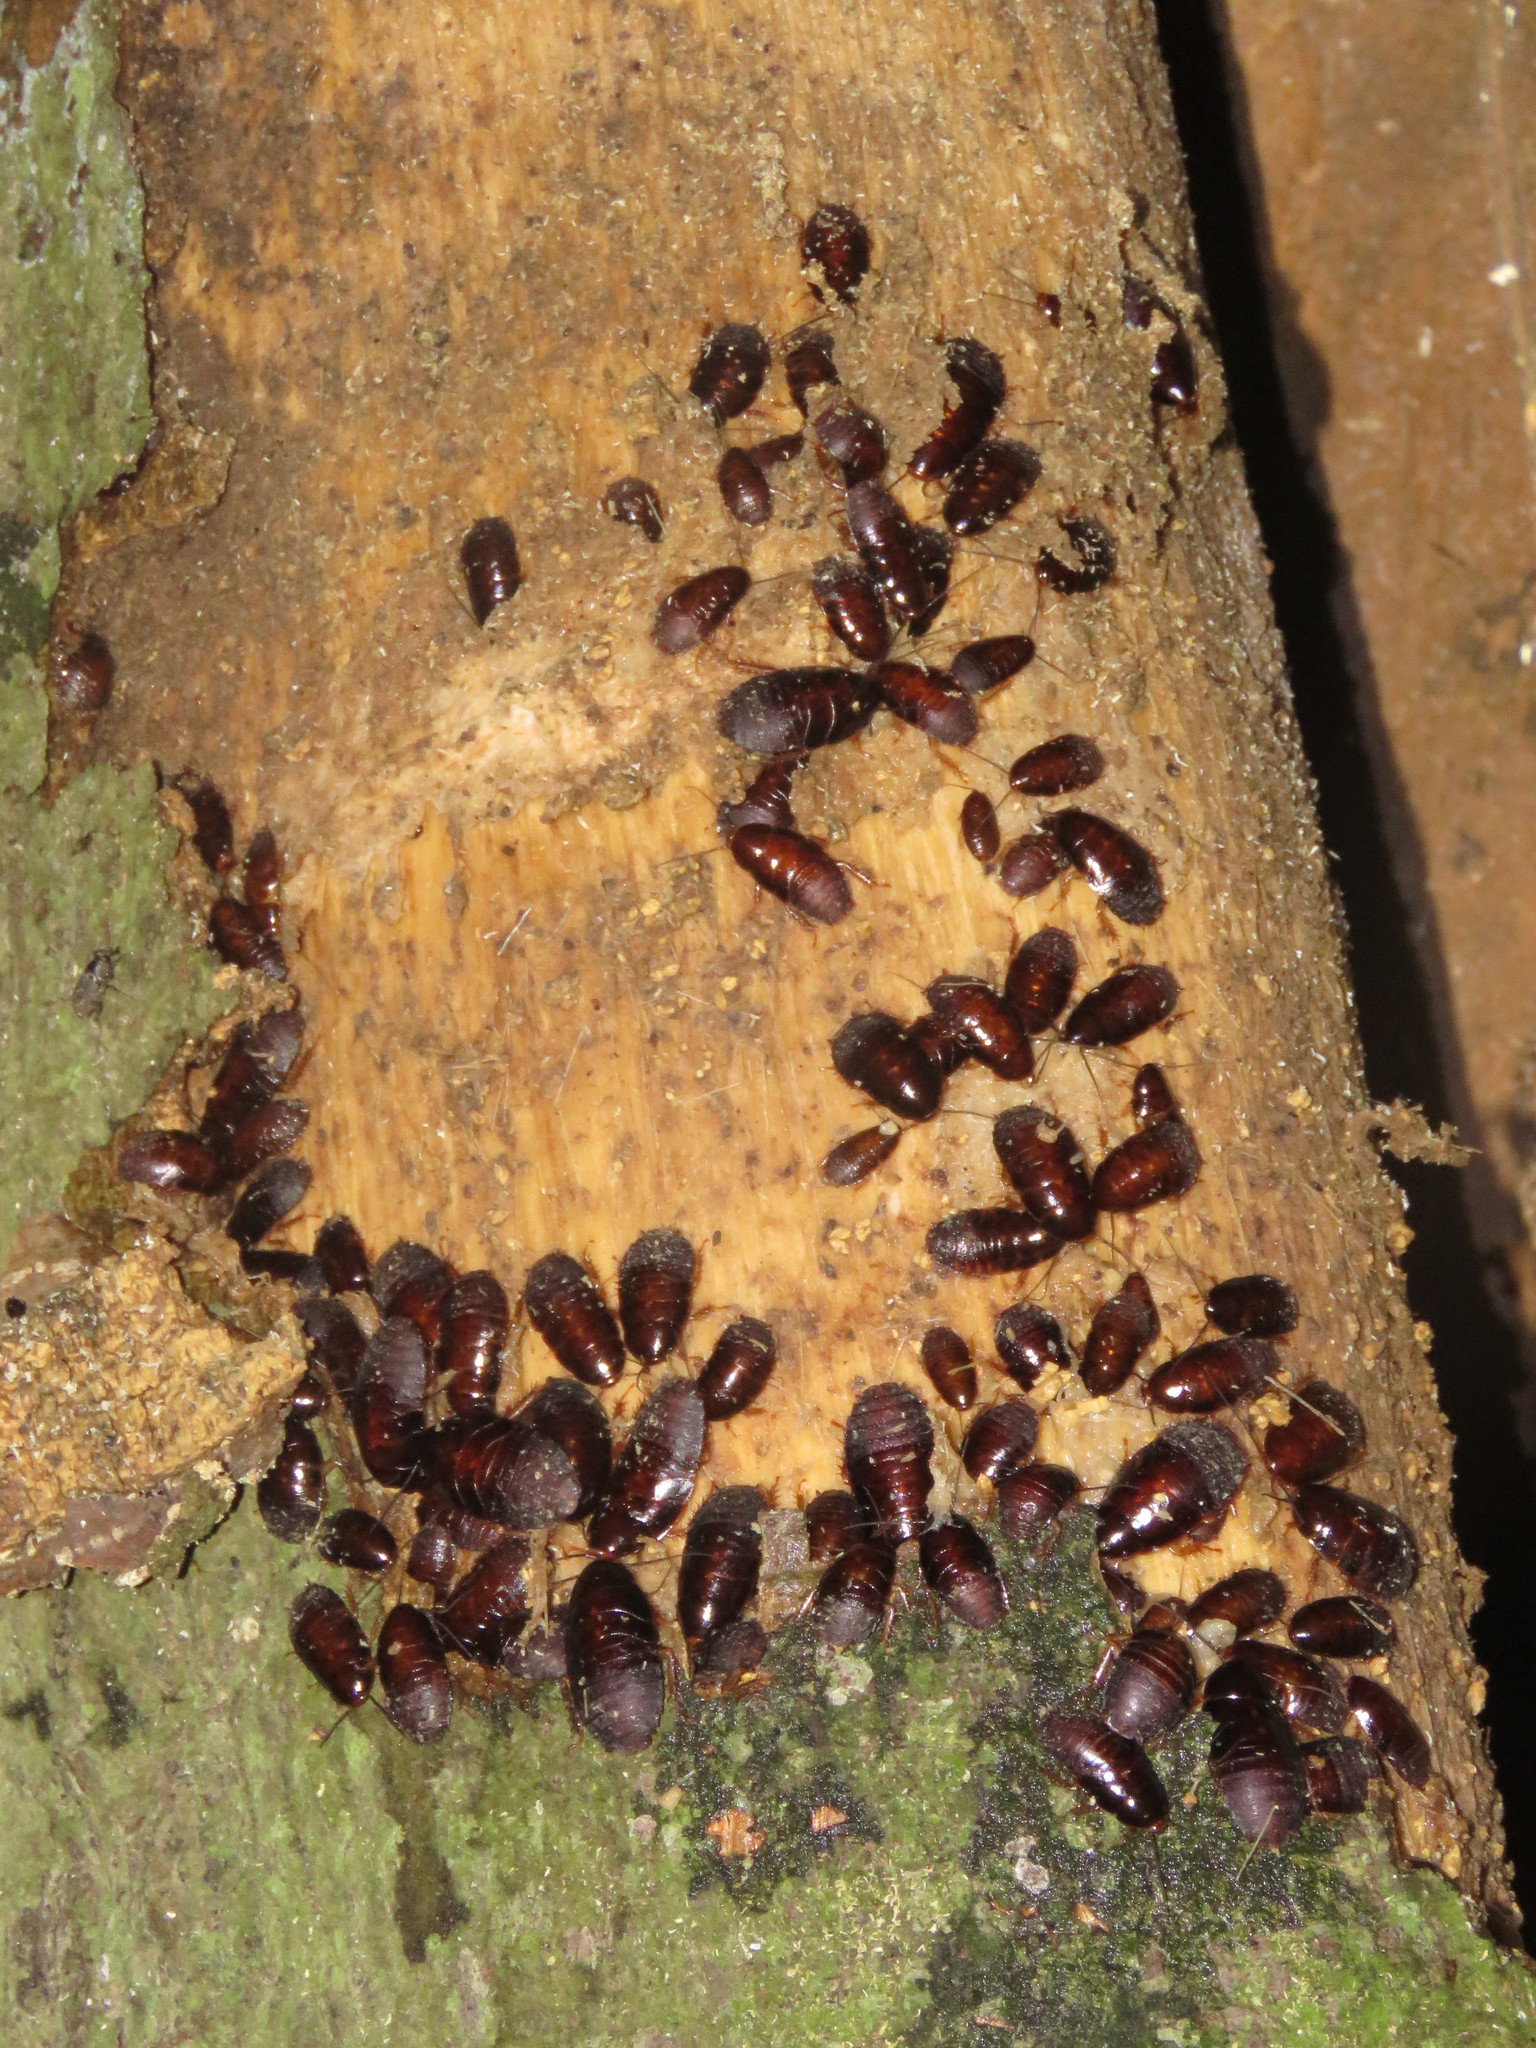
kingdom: Animalia
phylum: Arthropoda
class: Insecta
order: Blattodea
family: Blaberidae
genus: Pycnoscelus
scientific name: Pycnoscelus surinamensis
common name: Surinam cockroach
